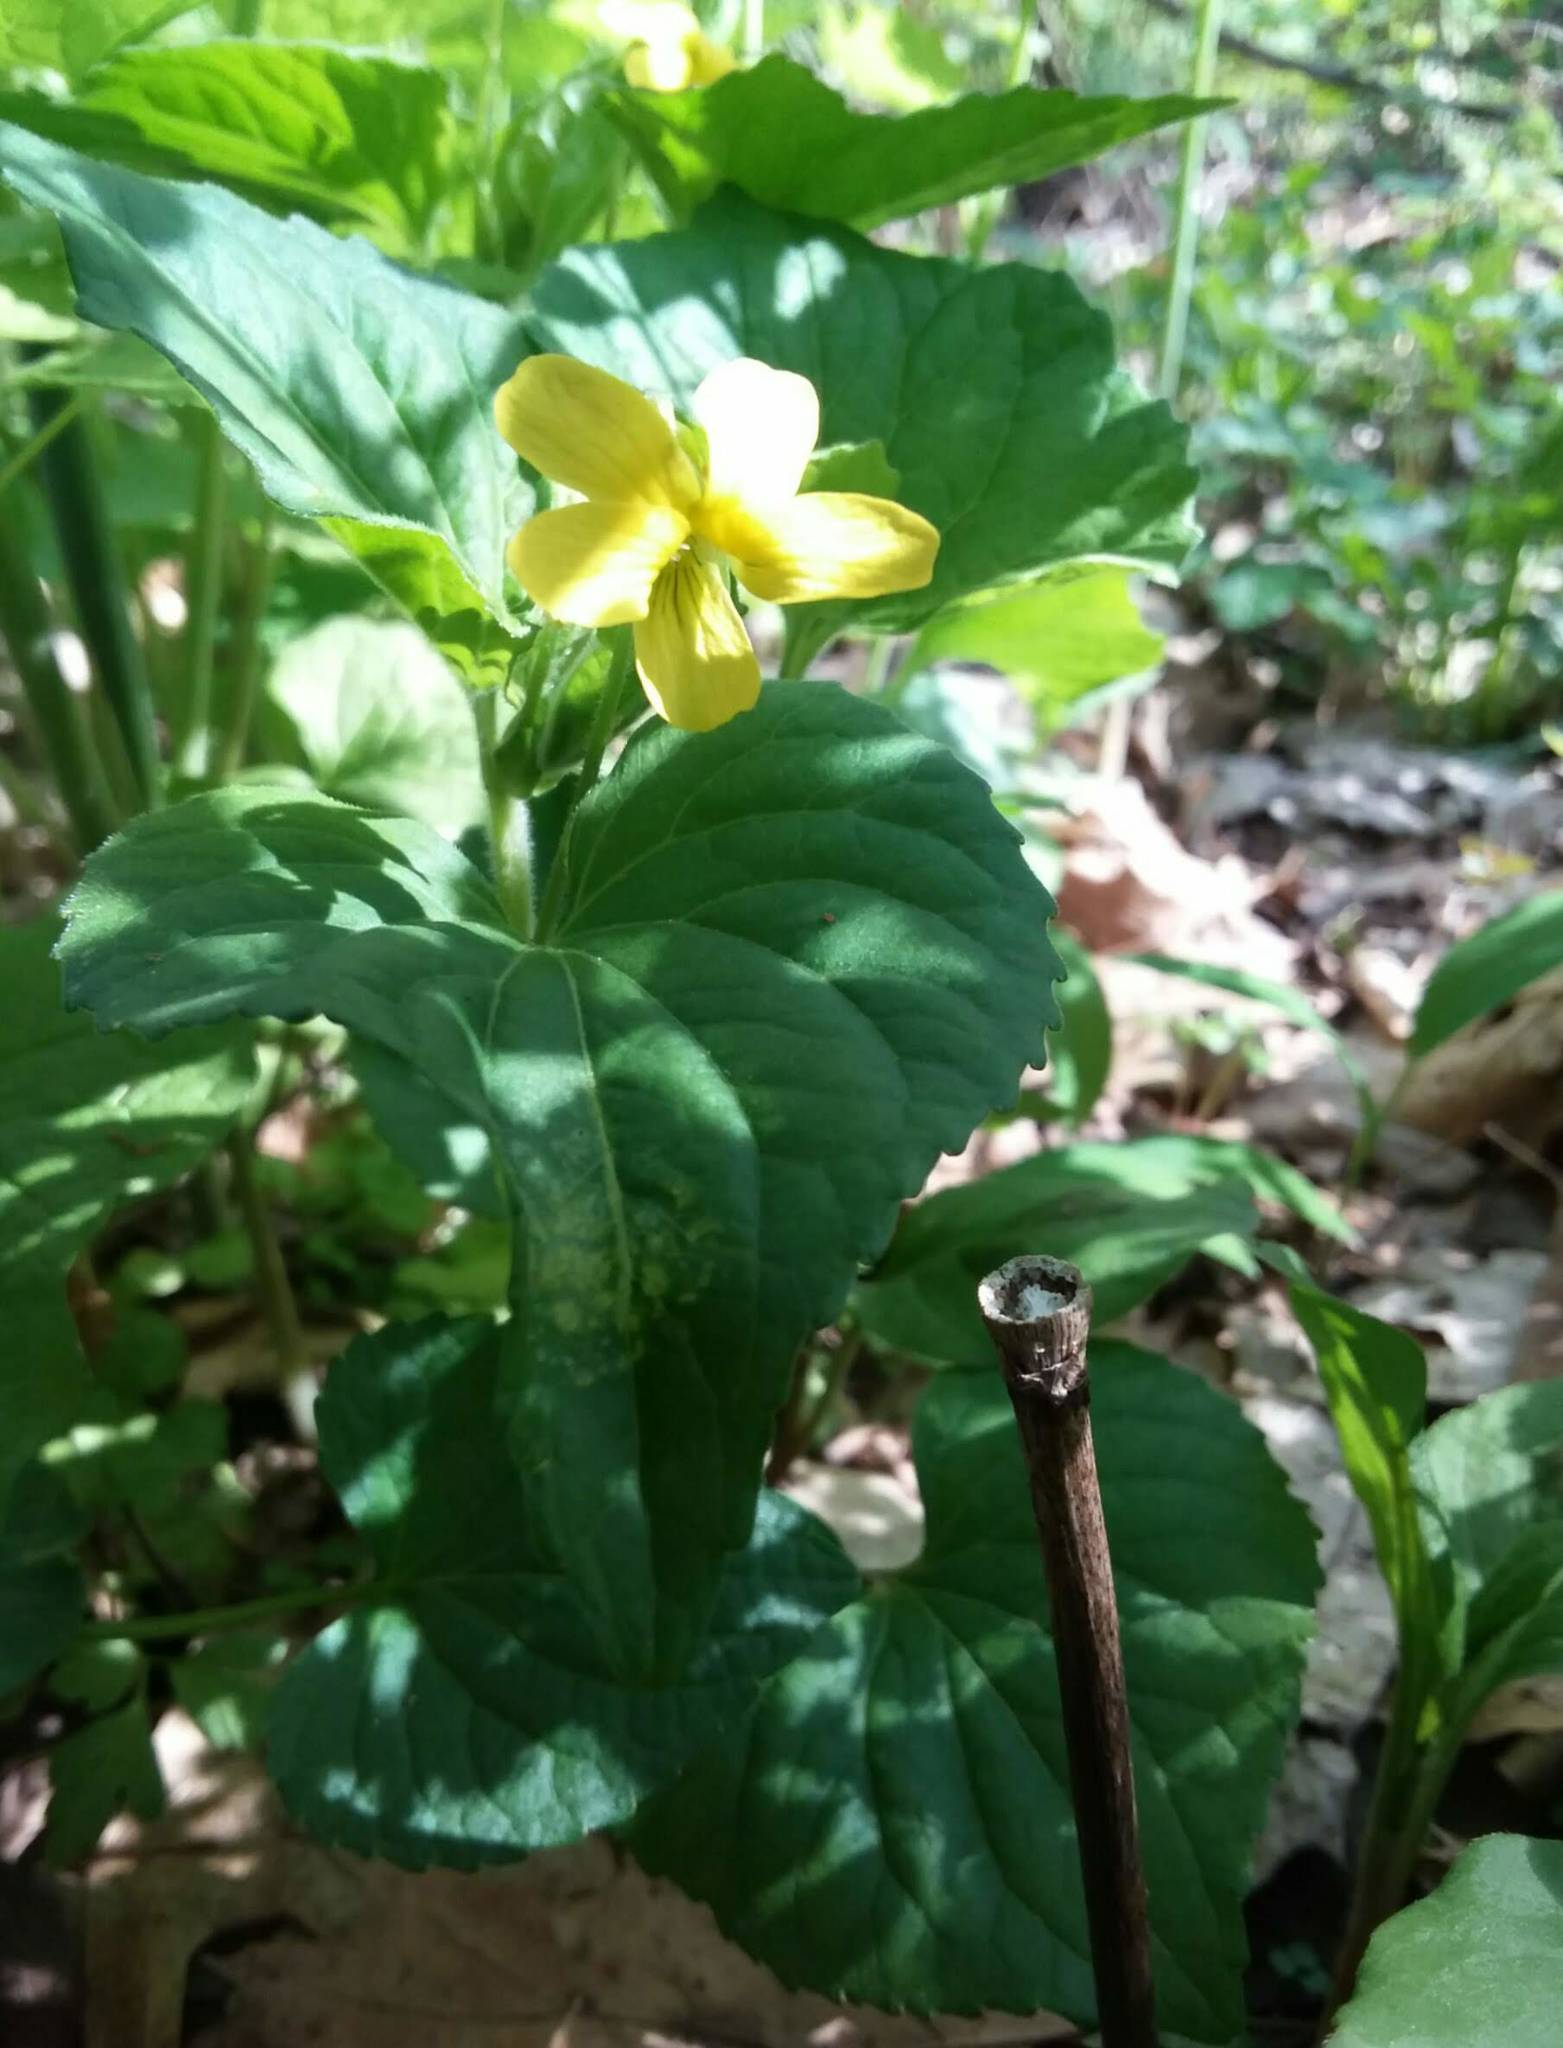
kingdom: Plantae
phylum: Tracheophyta
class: Magnoliopsida
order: Malpighiales
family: Violaceae
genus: Viola
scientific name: Viola eriocarpa
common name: Smooth yellow violet
